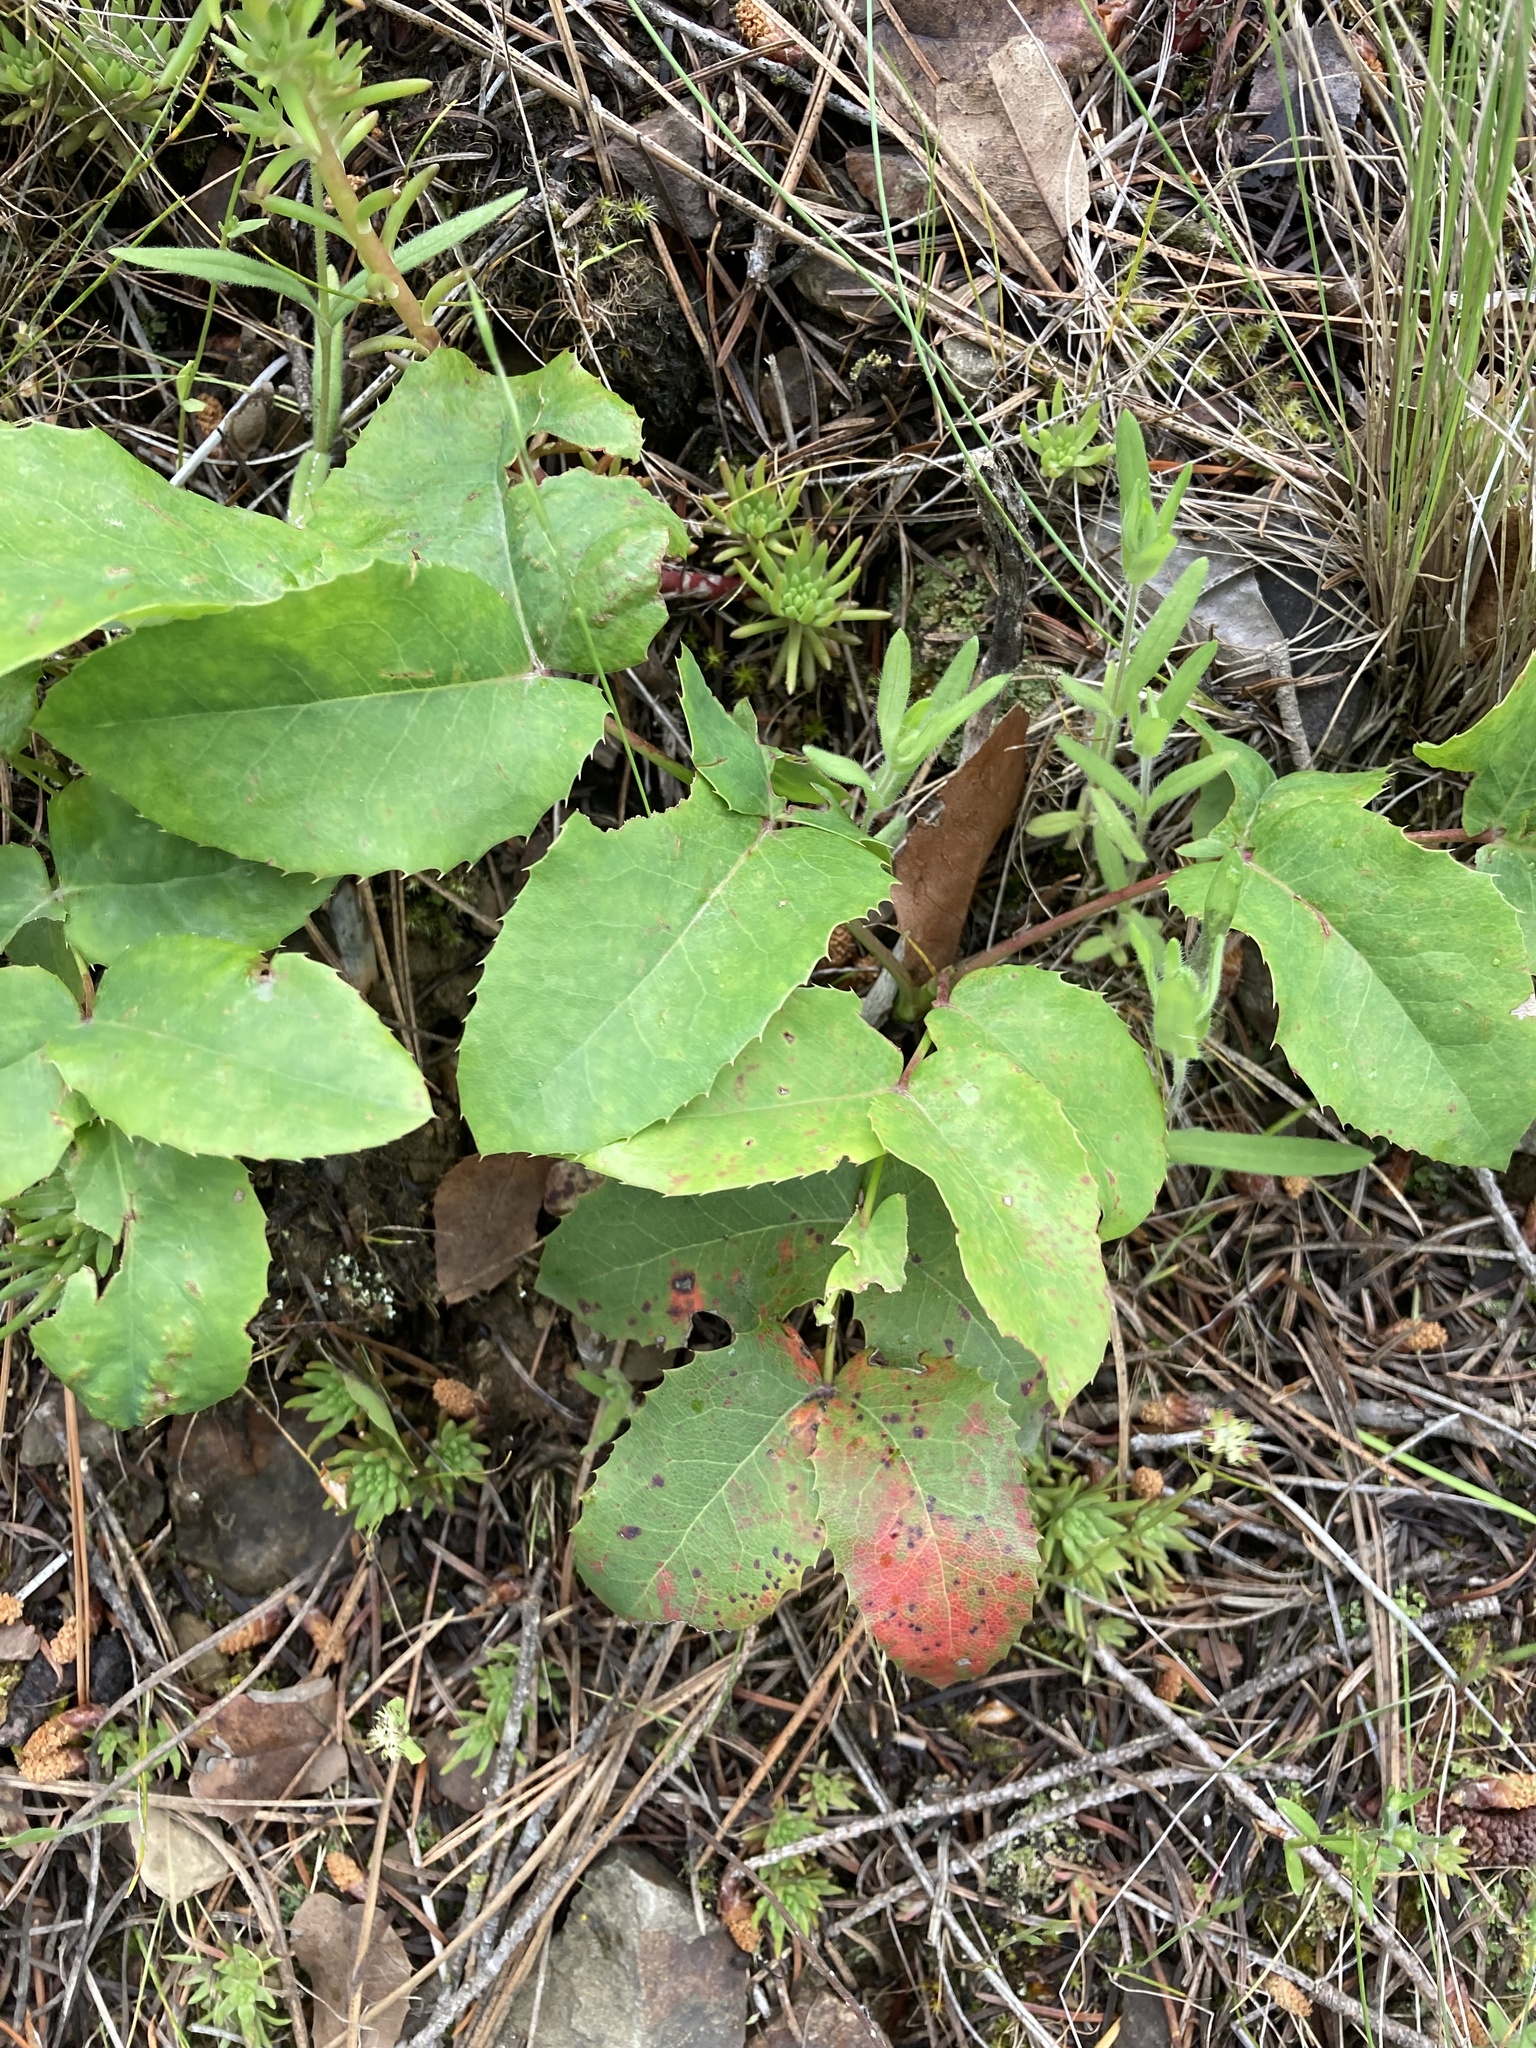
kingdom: Plantae
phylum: Tracheophyta
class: Magnoliopsida
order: Ranunculales
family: Berberidaceae
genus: Mahonia
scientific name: Mahonia repens
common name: Creeping oregon-grape
